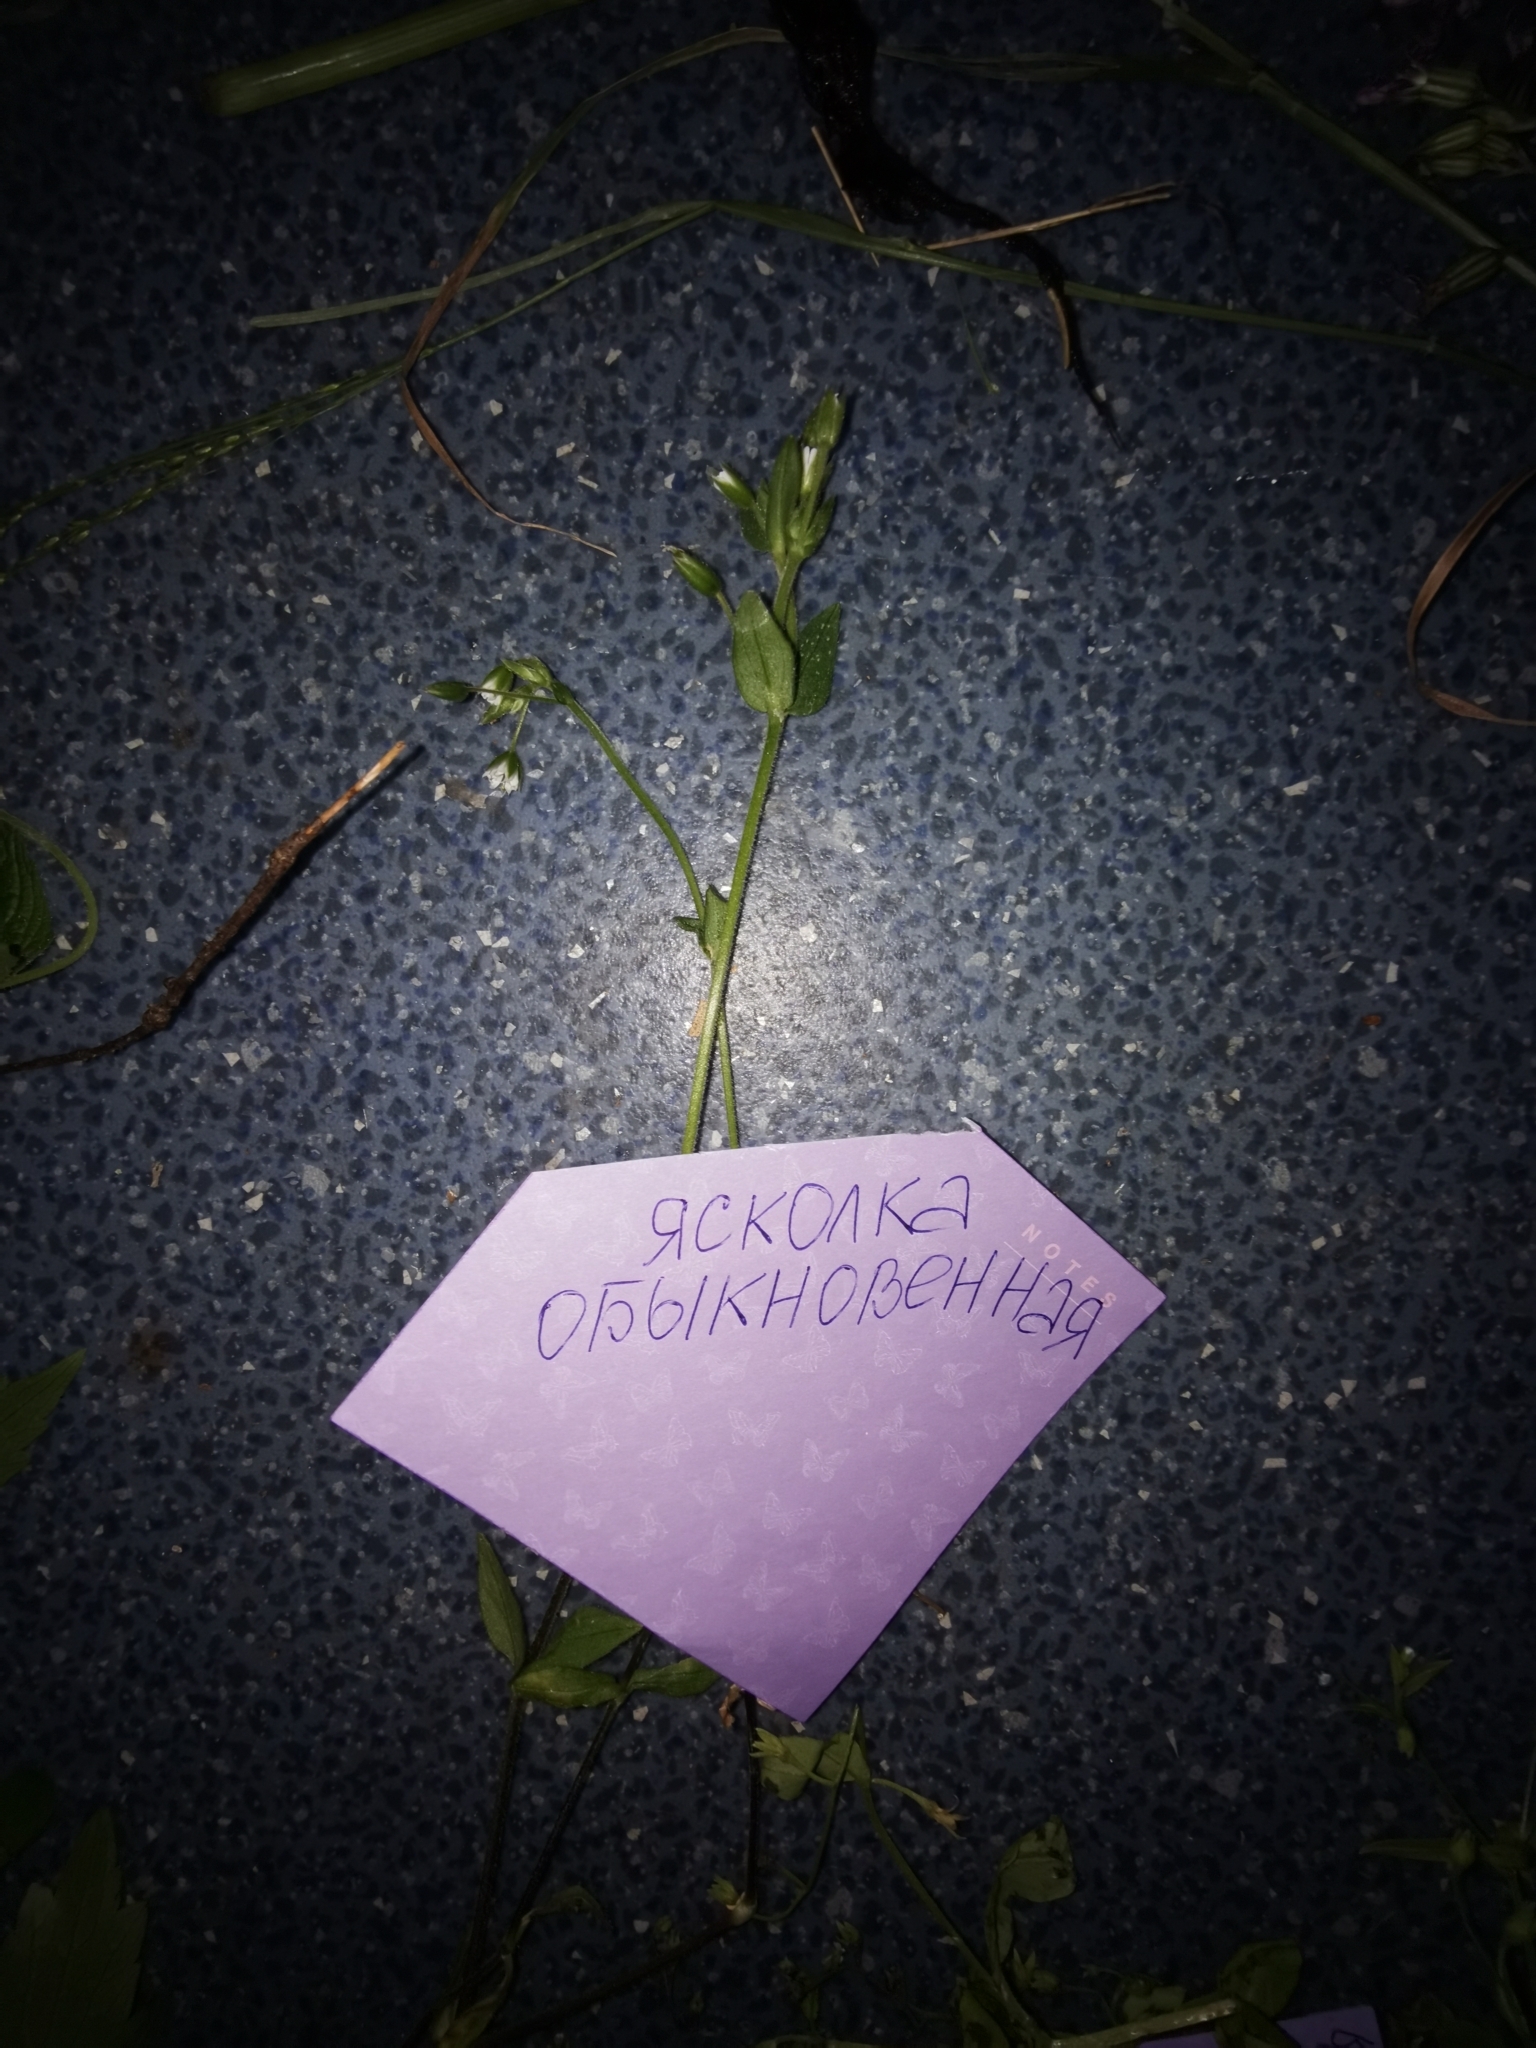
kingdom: Plantae
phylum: Tracheophyta
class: Magnoliopsida
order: Caryophyllales
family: Caryophyllaceae
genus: Cerastium
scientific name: Cerastium holosteoides
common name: Big chickweed
